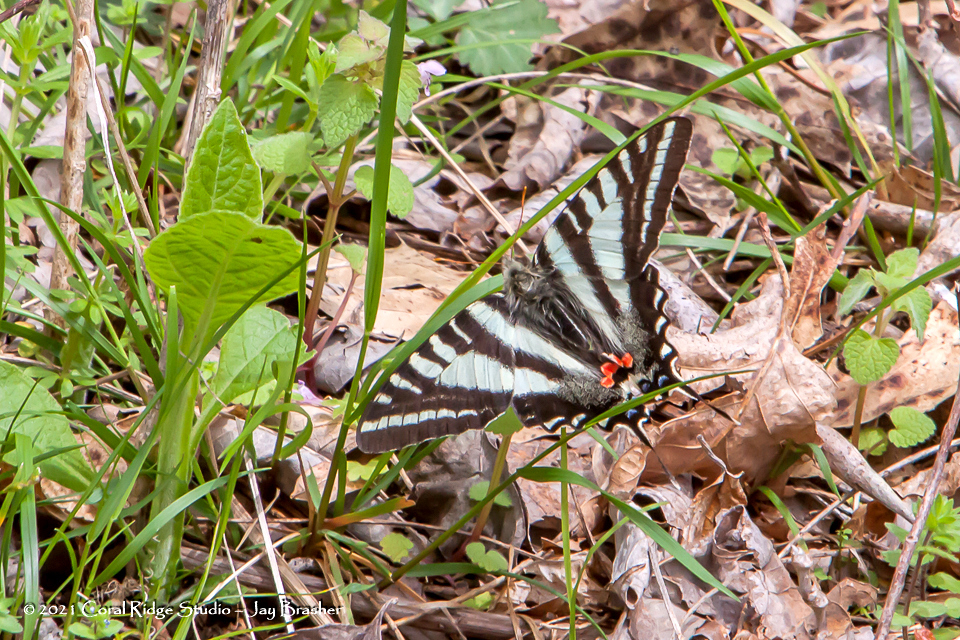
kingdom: Animalia
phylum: Arthropoda
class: Insecta
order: Lepidoptera
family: Papilionidae
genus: Protographium
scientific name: Protographium marcellus
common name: Zebra swallowtail
